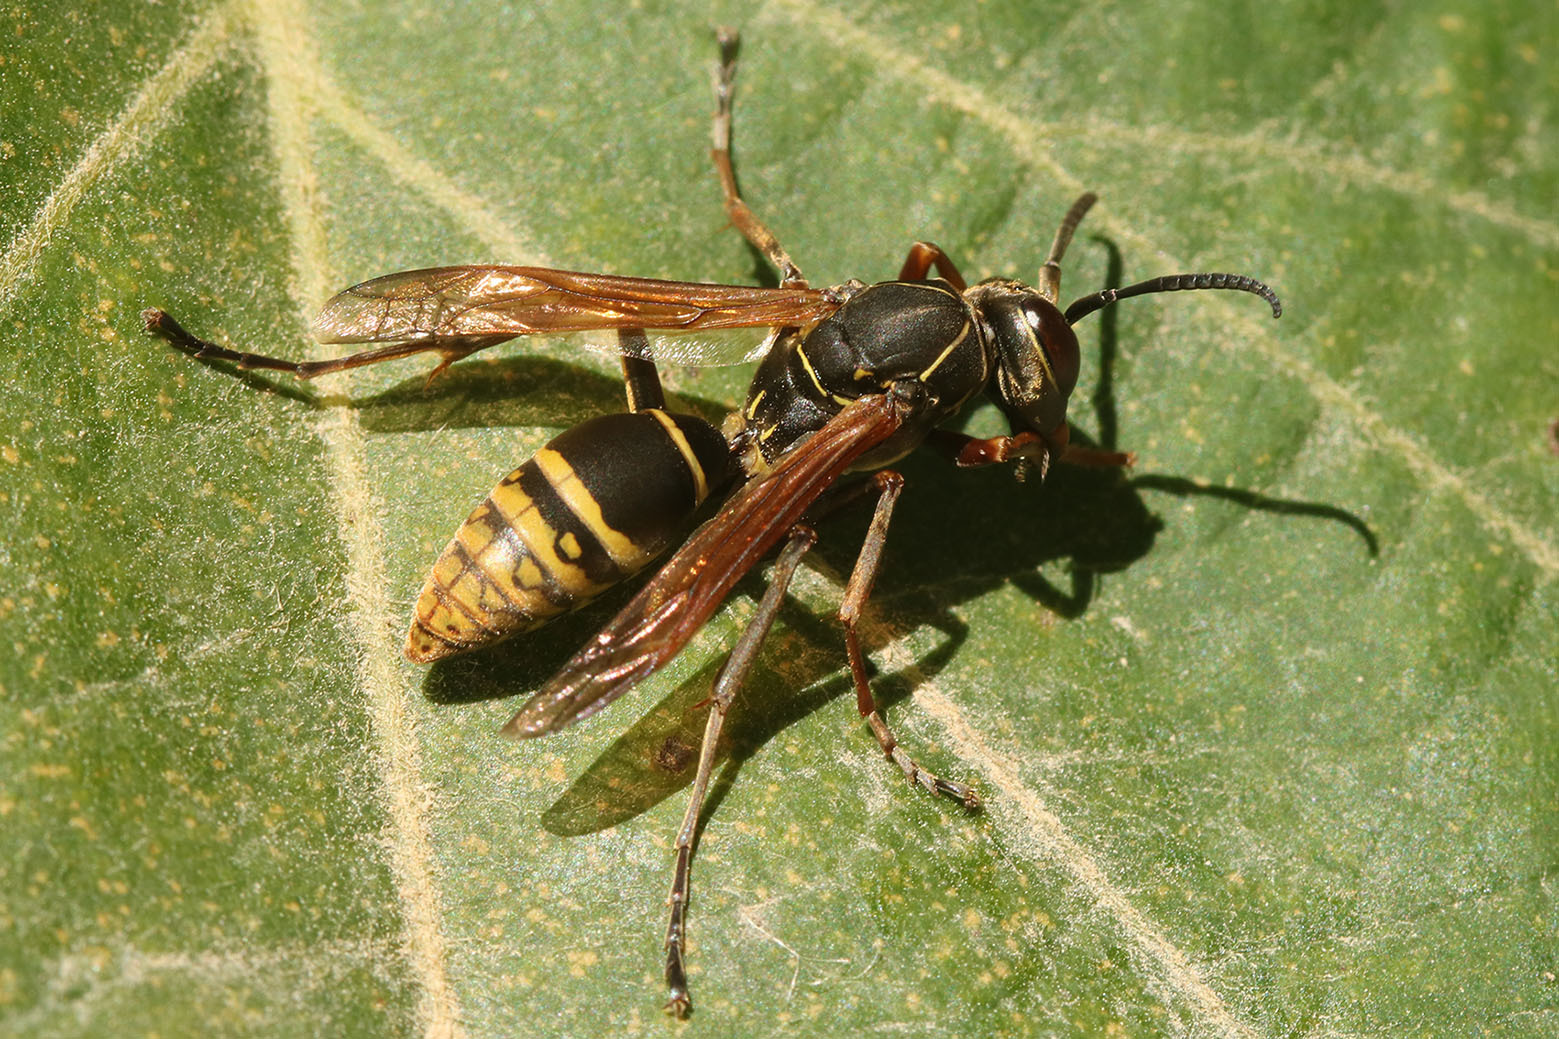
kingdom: Animalia
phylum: Arthropoda
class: Insecta
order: Hymenoptera
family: Eumenidae
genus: Polistes
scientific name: Polistes cinerascens
